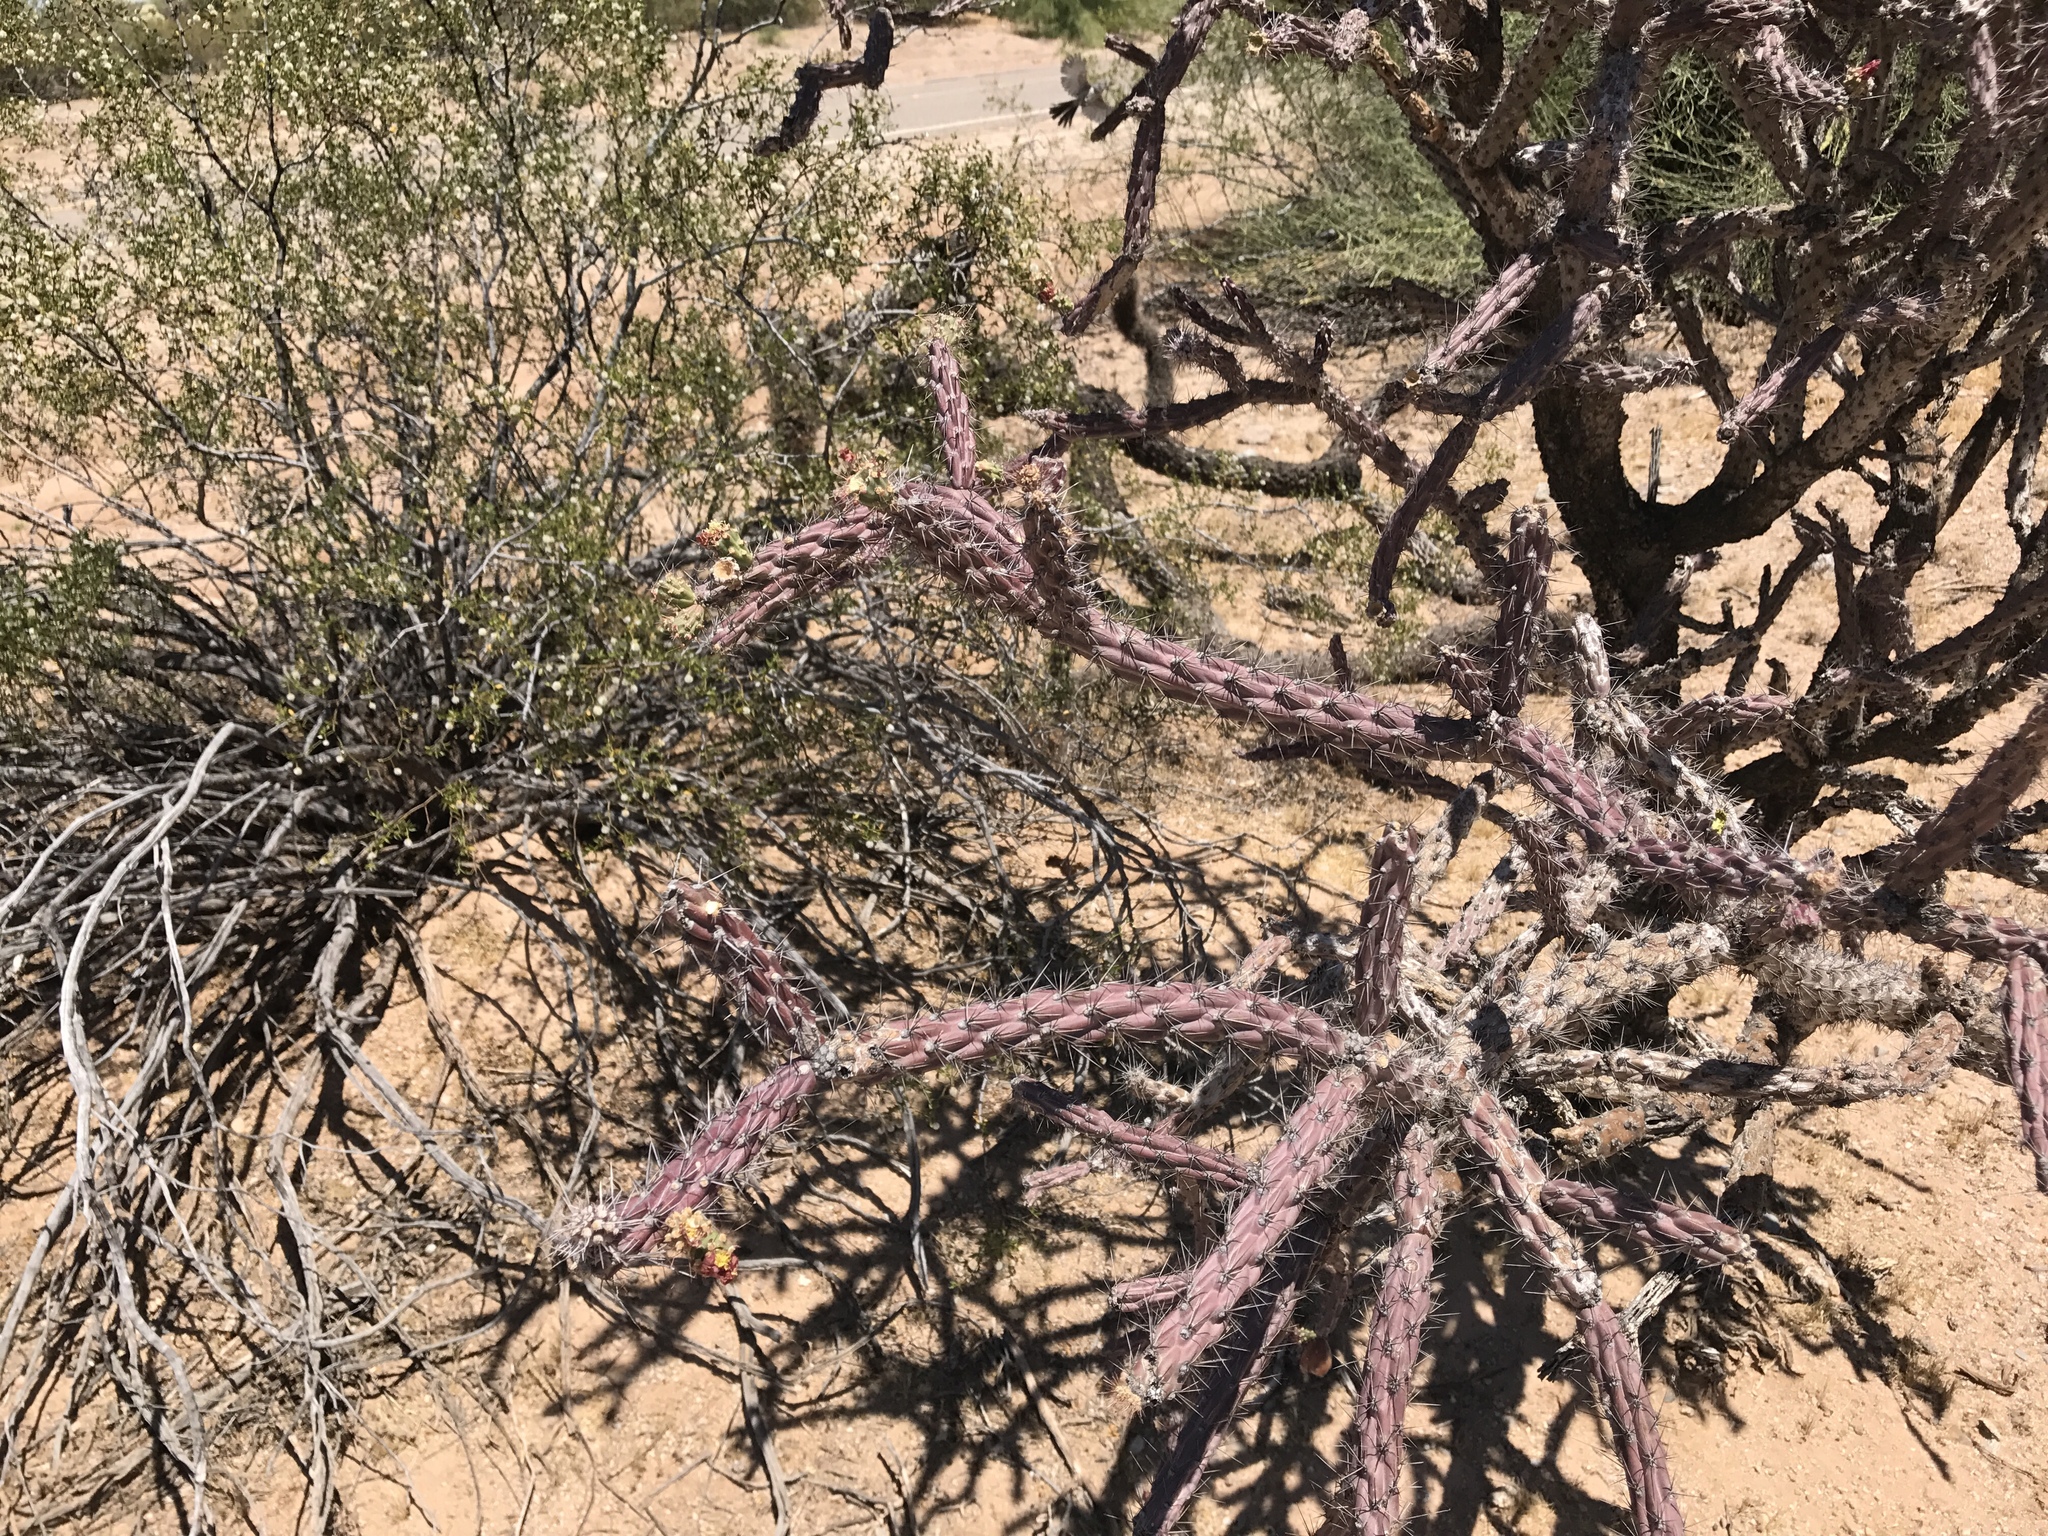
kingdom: Plantae
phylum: Tracheophyta
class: Magnoliopsida
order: Caryophyllales
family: Cactaceae
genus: Cylindropuntia
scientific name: Cylindropuntia thurberi
